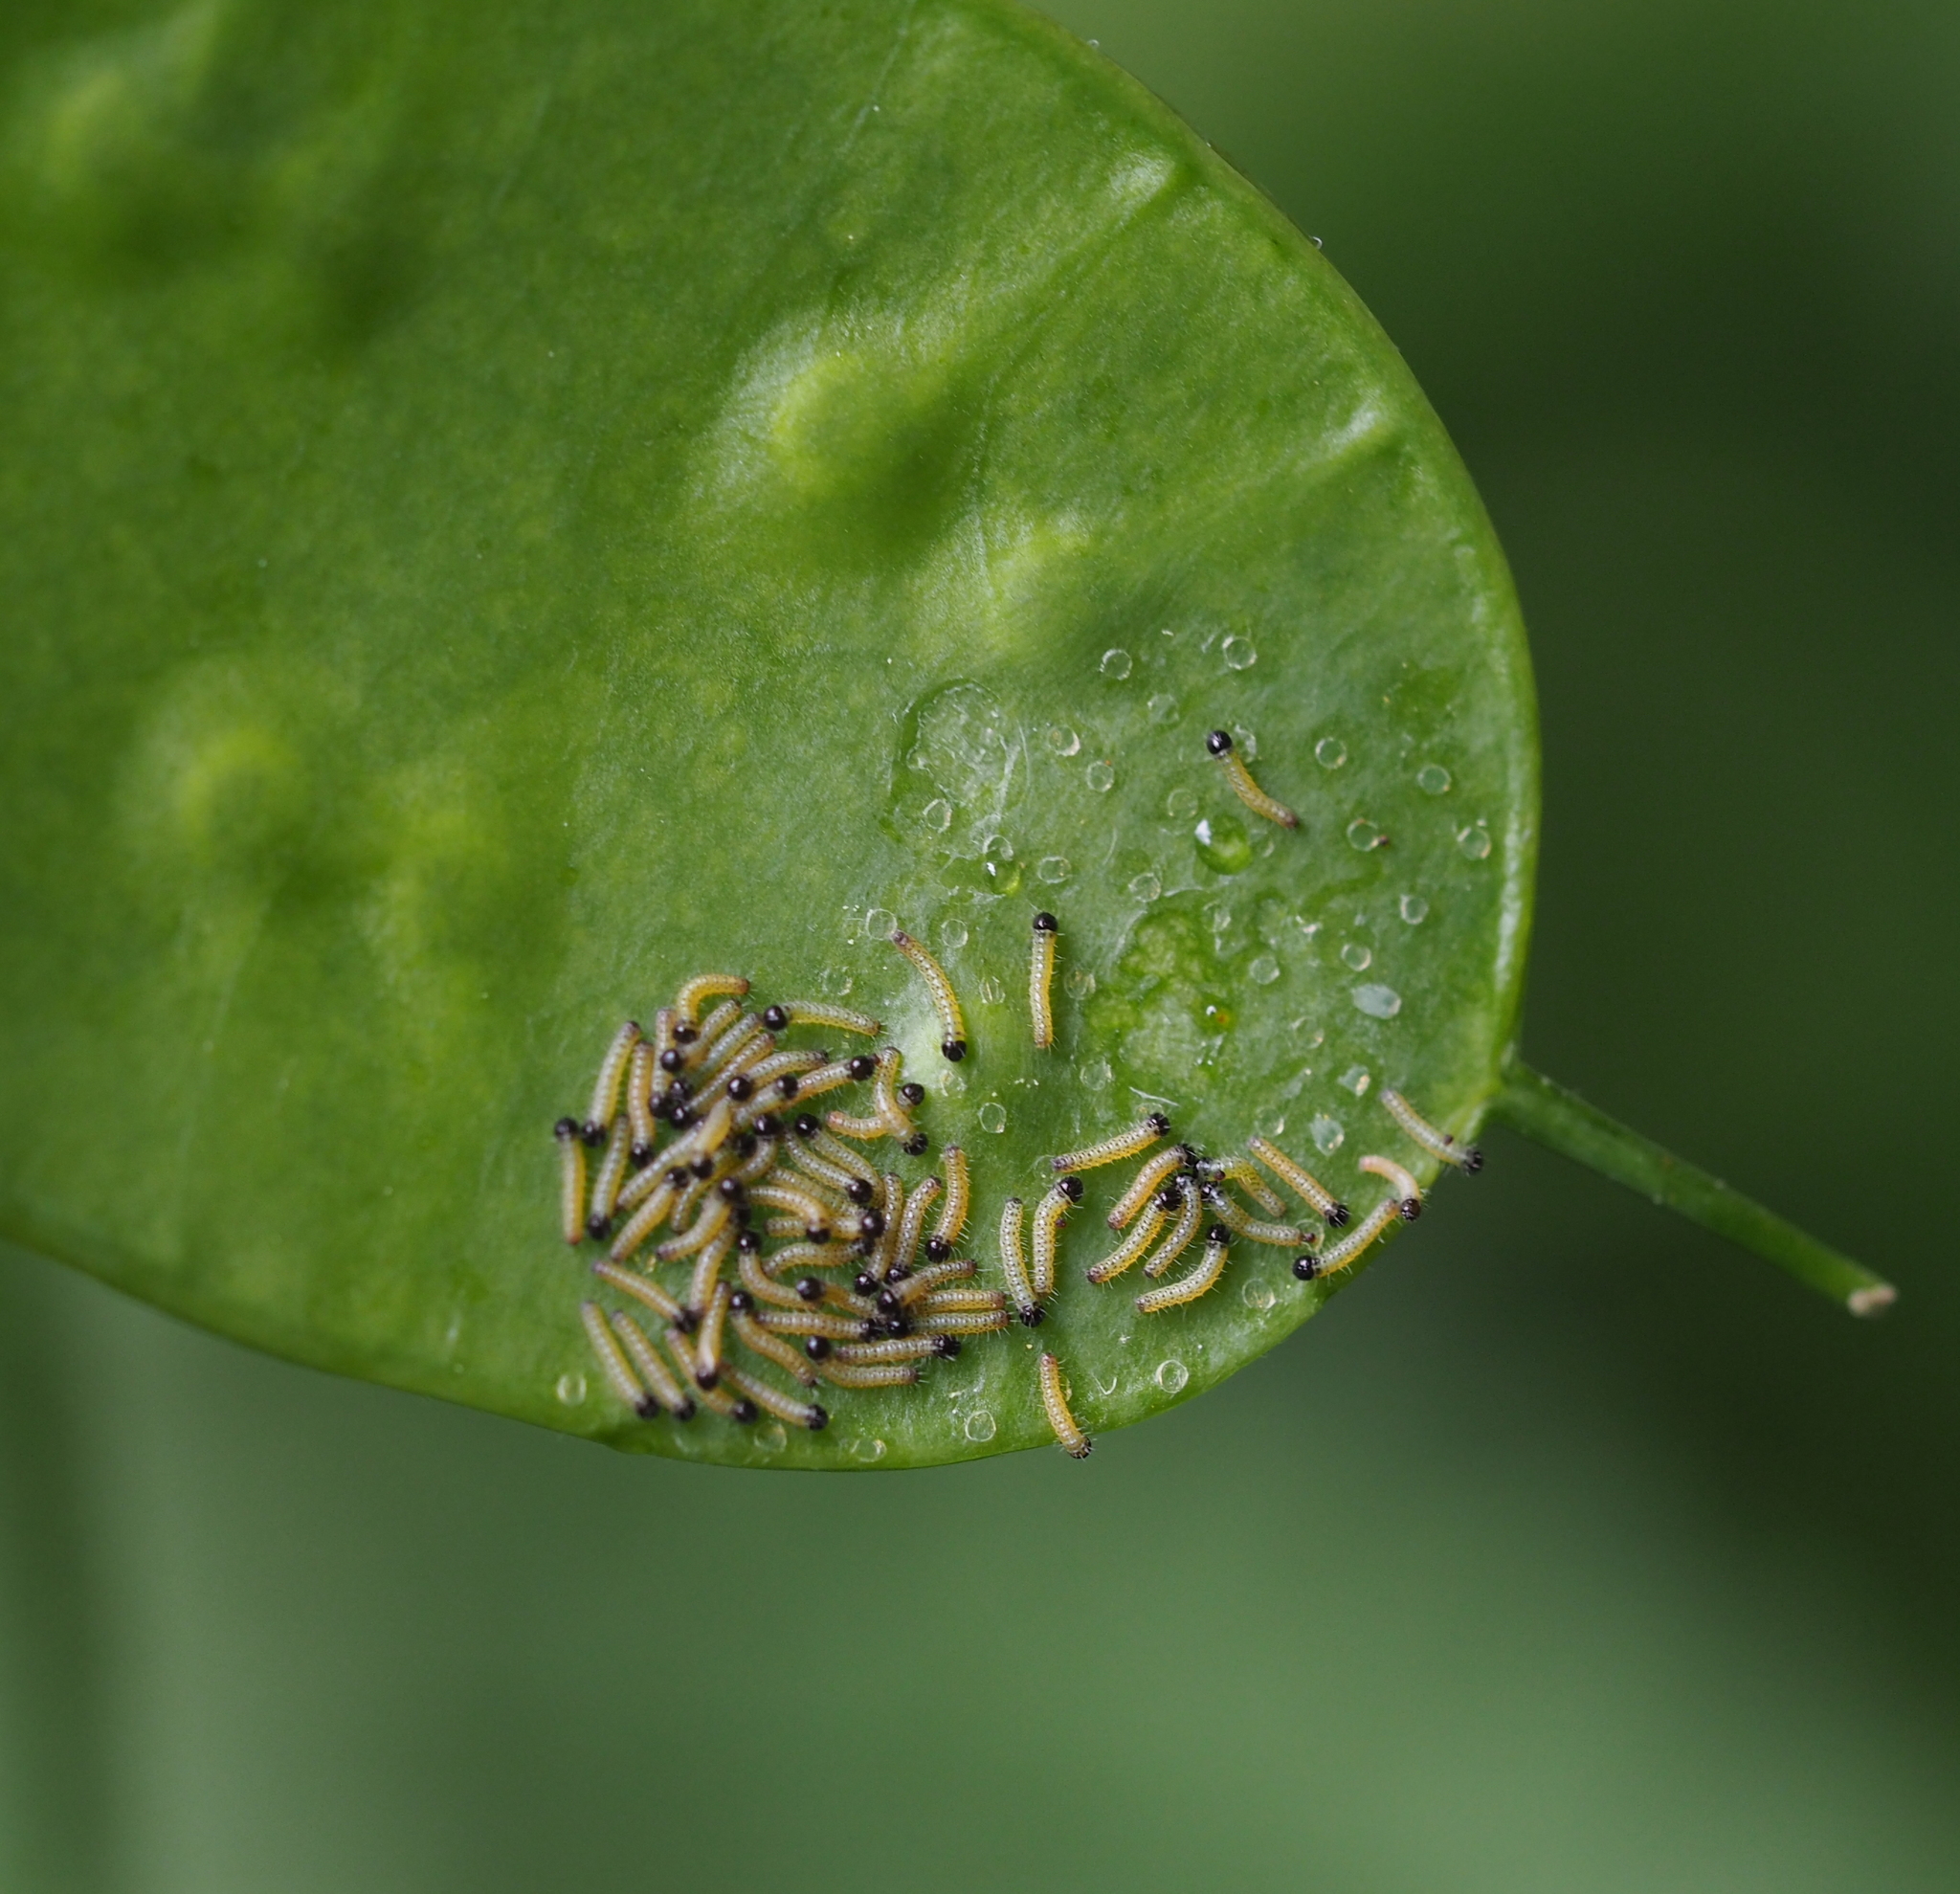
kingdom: Animalia
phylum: Arthropoda
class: Insecta
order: Lepidoptera
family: Pieridae
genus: Pieris
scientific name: Pieris brassicae
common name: Large white
